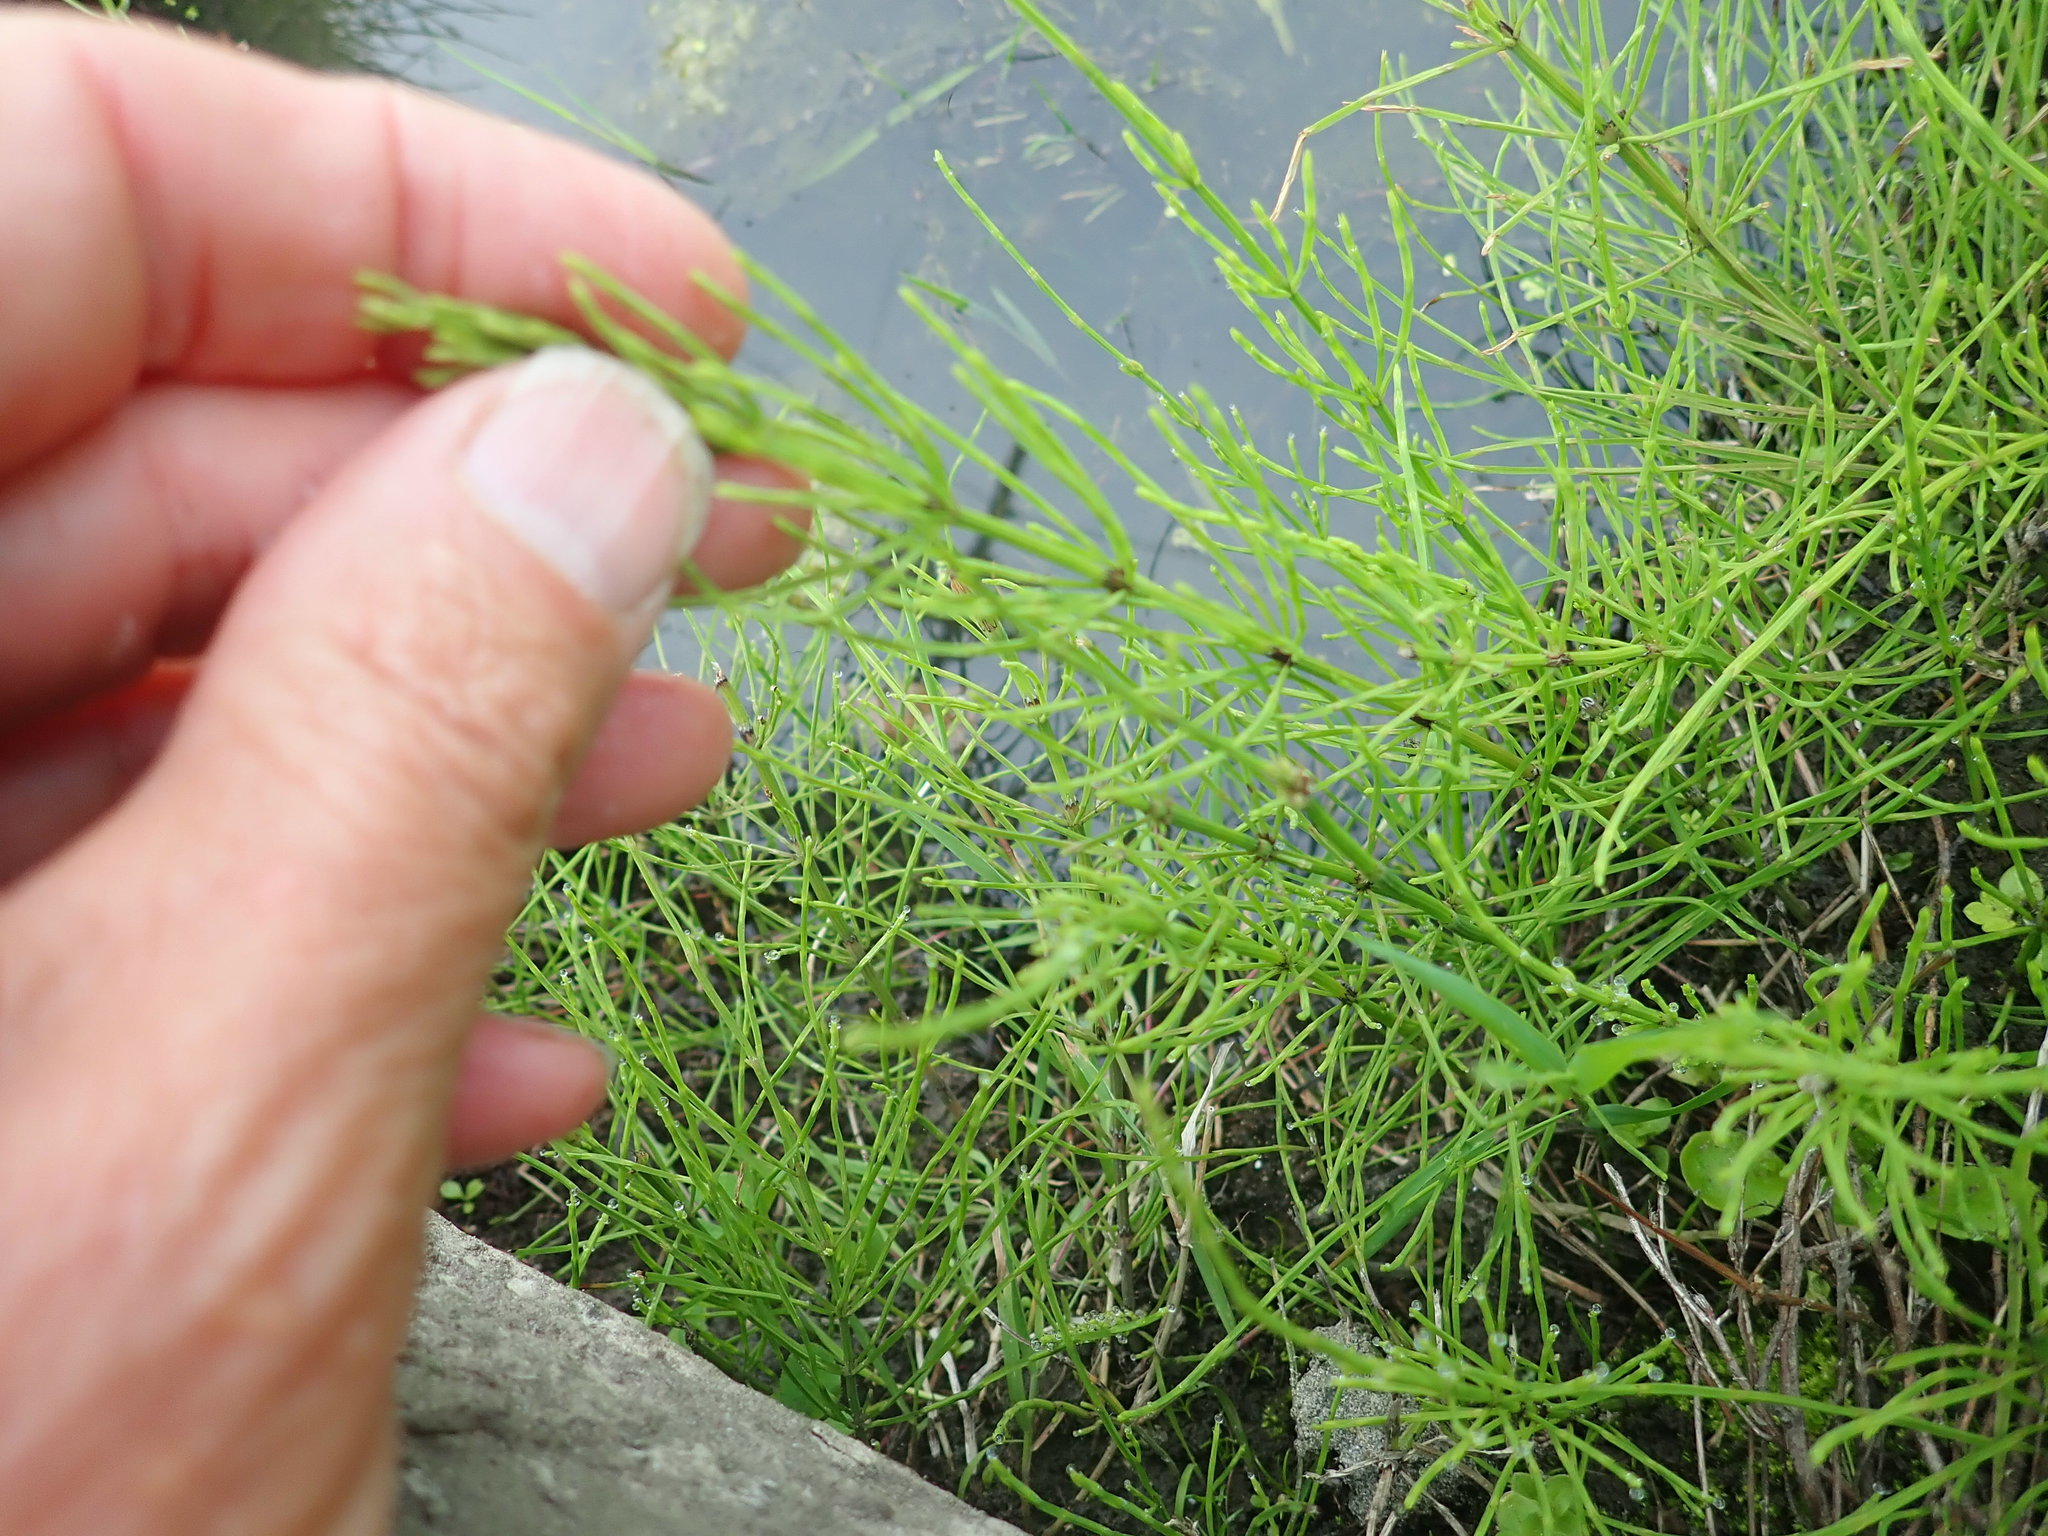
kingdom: Plantae
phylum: Tracheophyta
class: Polypodiopsida
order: Equisetales
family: Equisetaceae
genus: Equisetum
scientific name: Equisetum arvense
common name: Field horsetail
